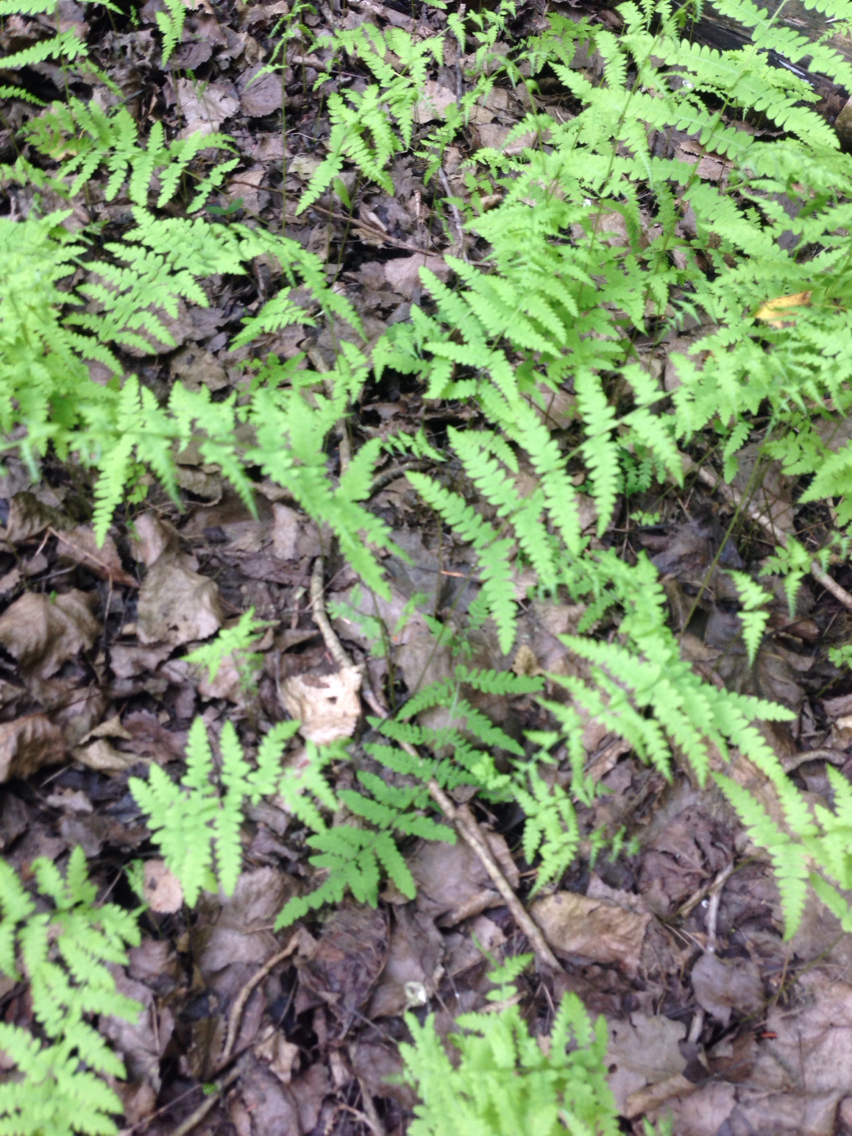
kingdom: Plantae
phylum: Tracheophyta
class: Polypodiopsida
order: Polypodiales
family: Thelypteridaceae
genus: Thelypteris
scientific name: Thelypteris palustris
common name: Marsh fern
